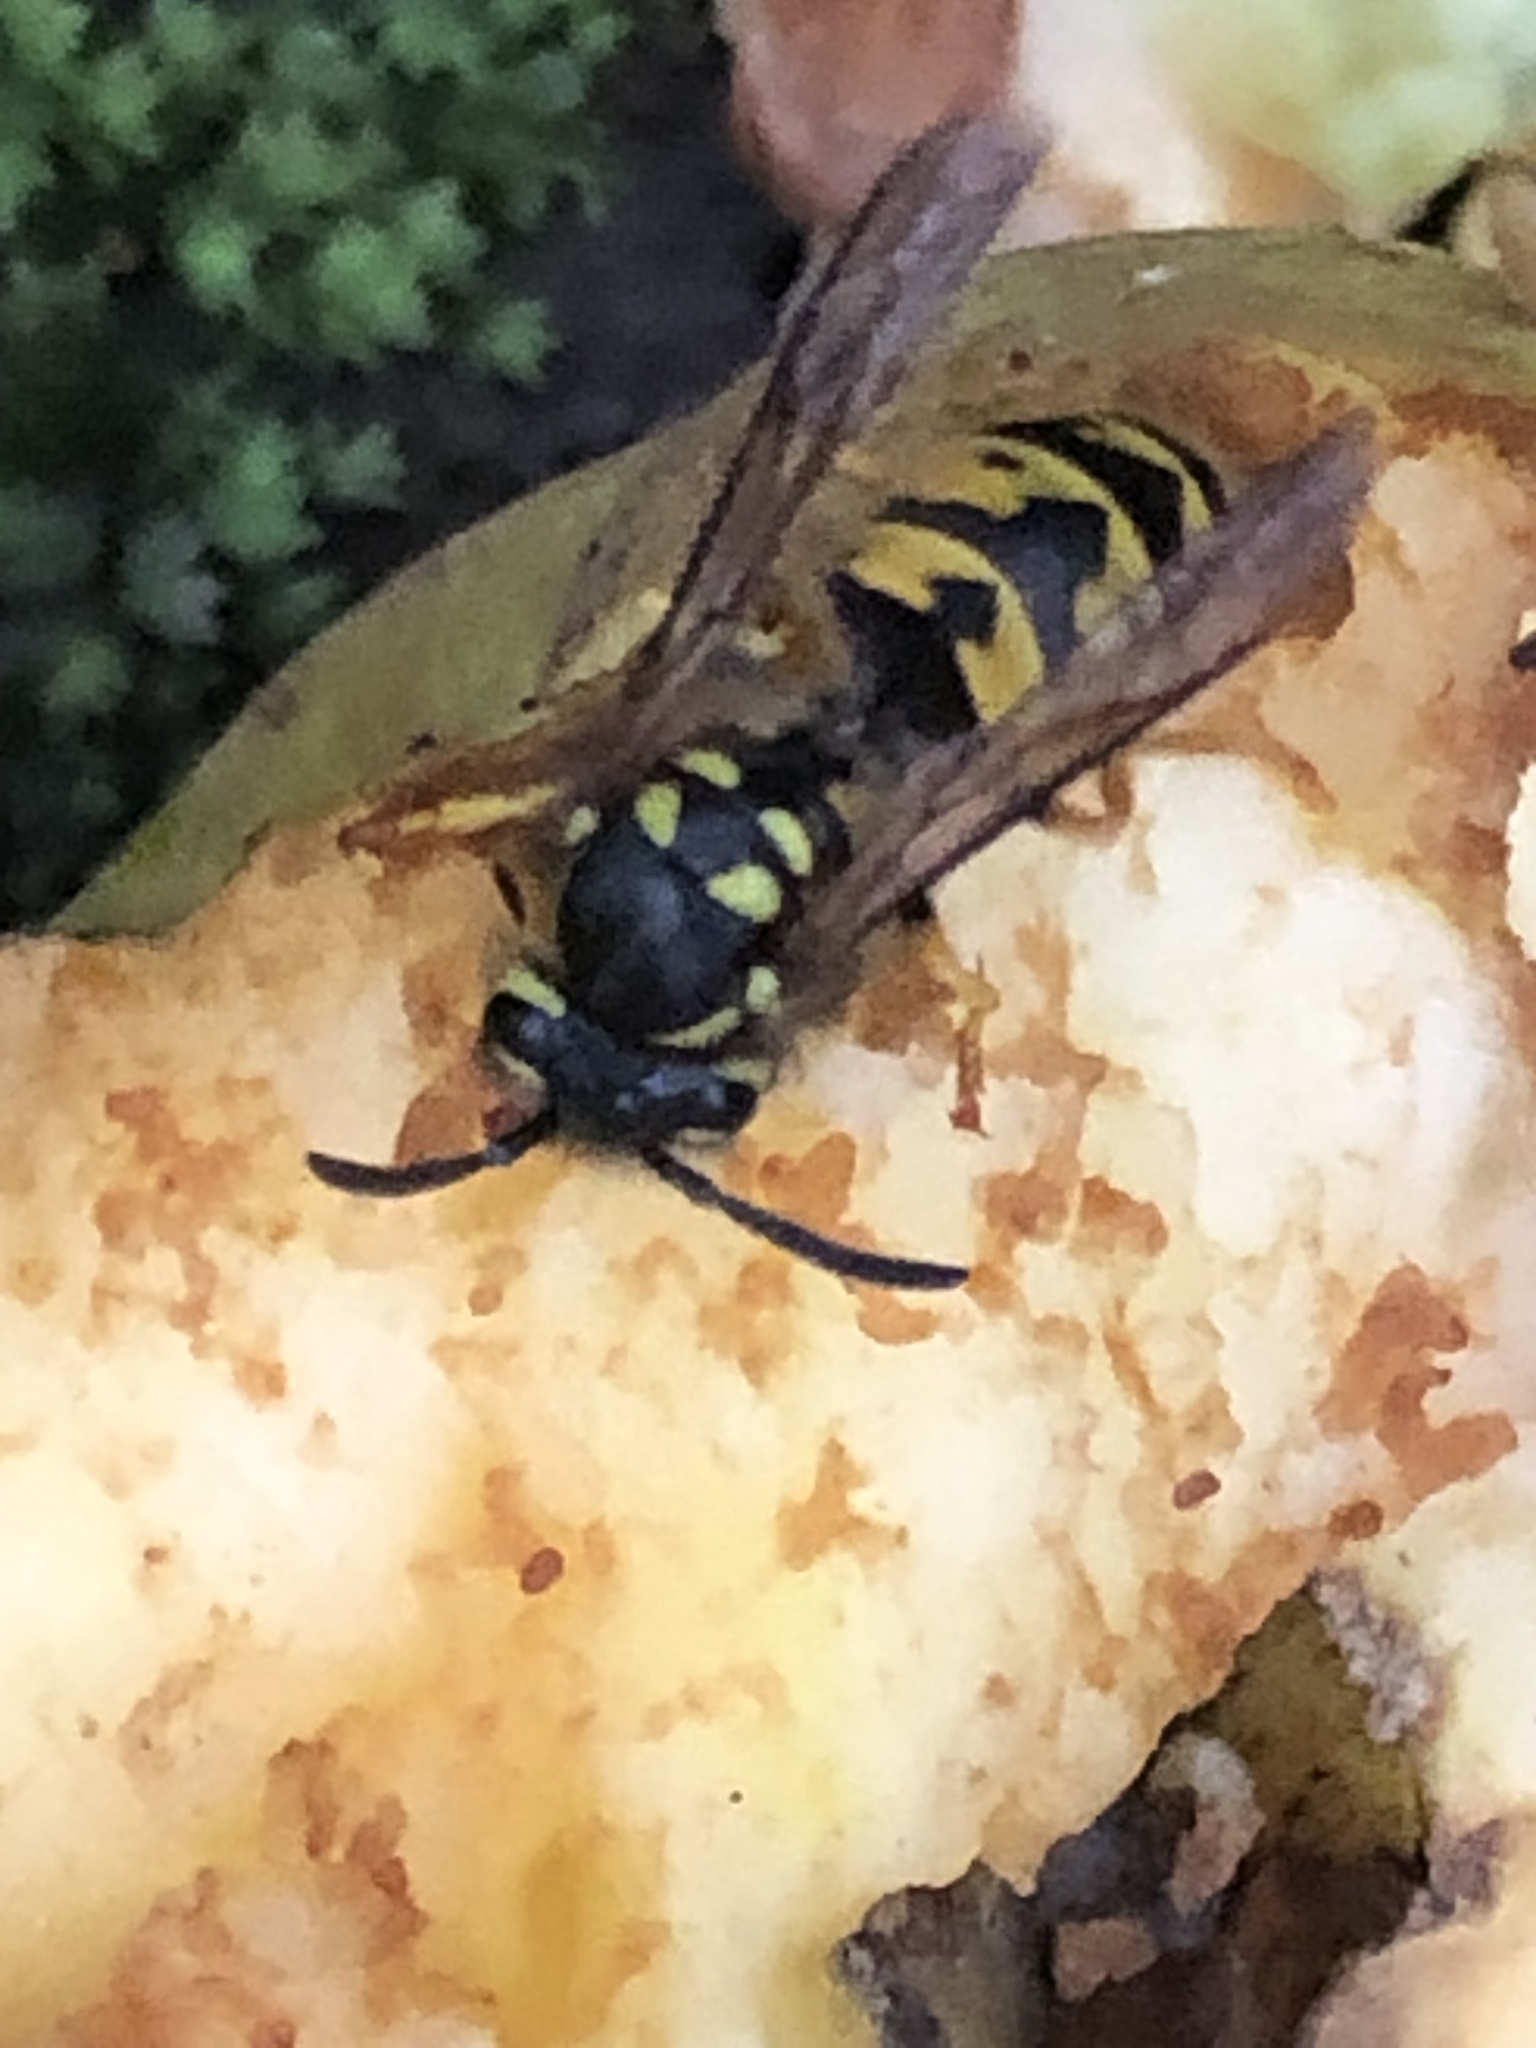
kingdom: Animalia
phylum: Arthropoda
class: Insecta
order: Hymenoptera
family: Vespidae
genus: Vespula
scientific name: Vespula germanica
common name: German wasp
